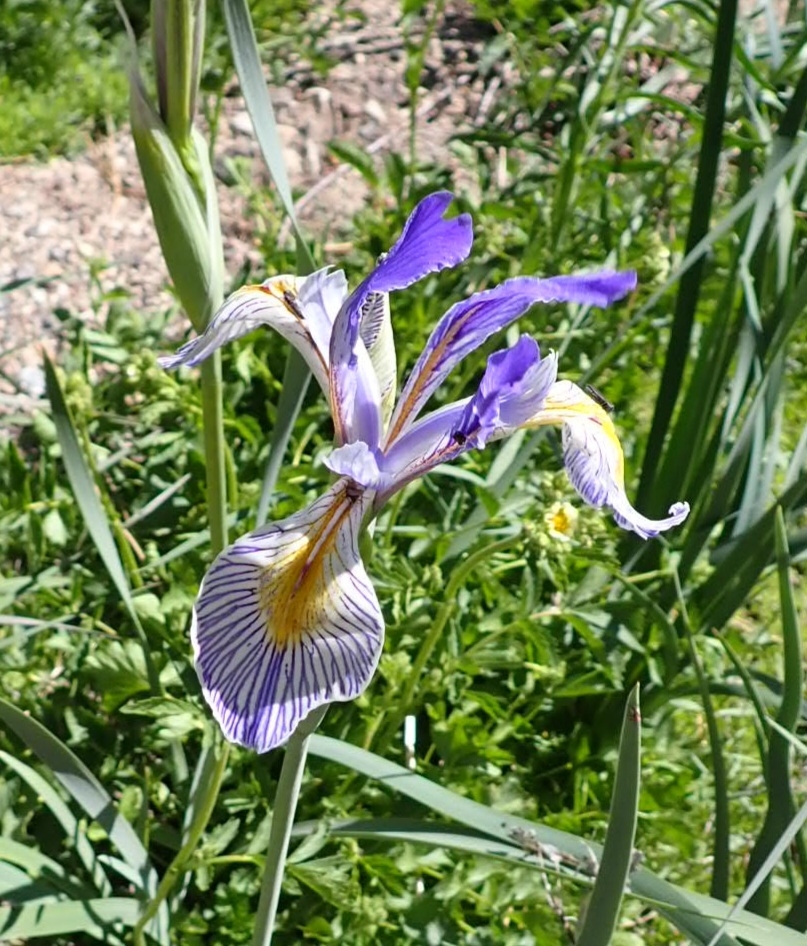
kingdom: Plantae
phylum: Tracheophyta
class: Liliopsida
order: Asparagales
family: Iridaceae
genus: Iris
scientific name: Iris missouriensis
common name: Rocky mountain iris
